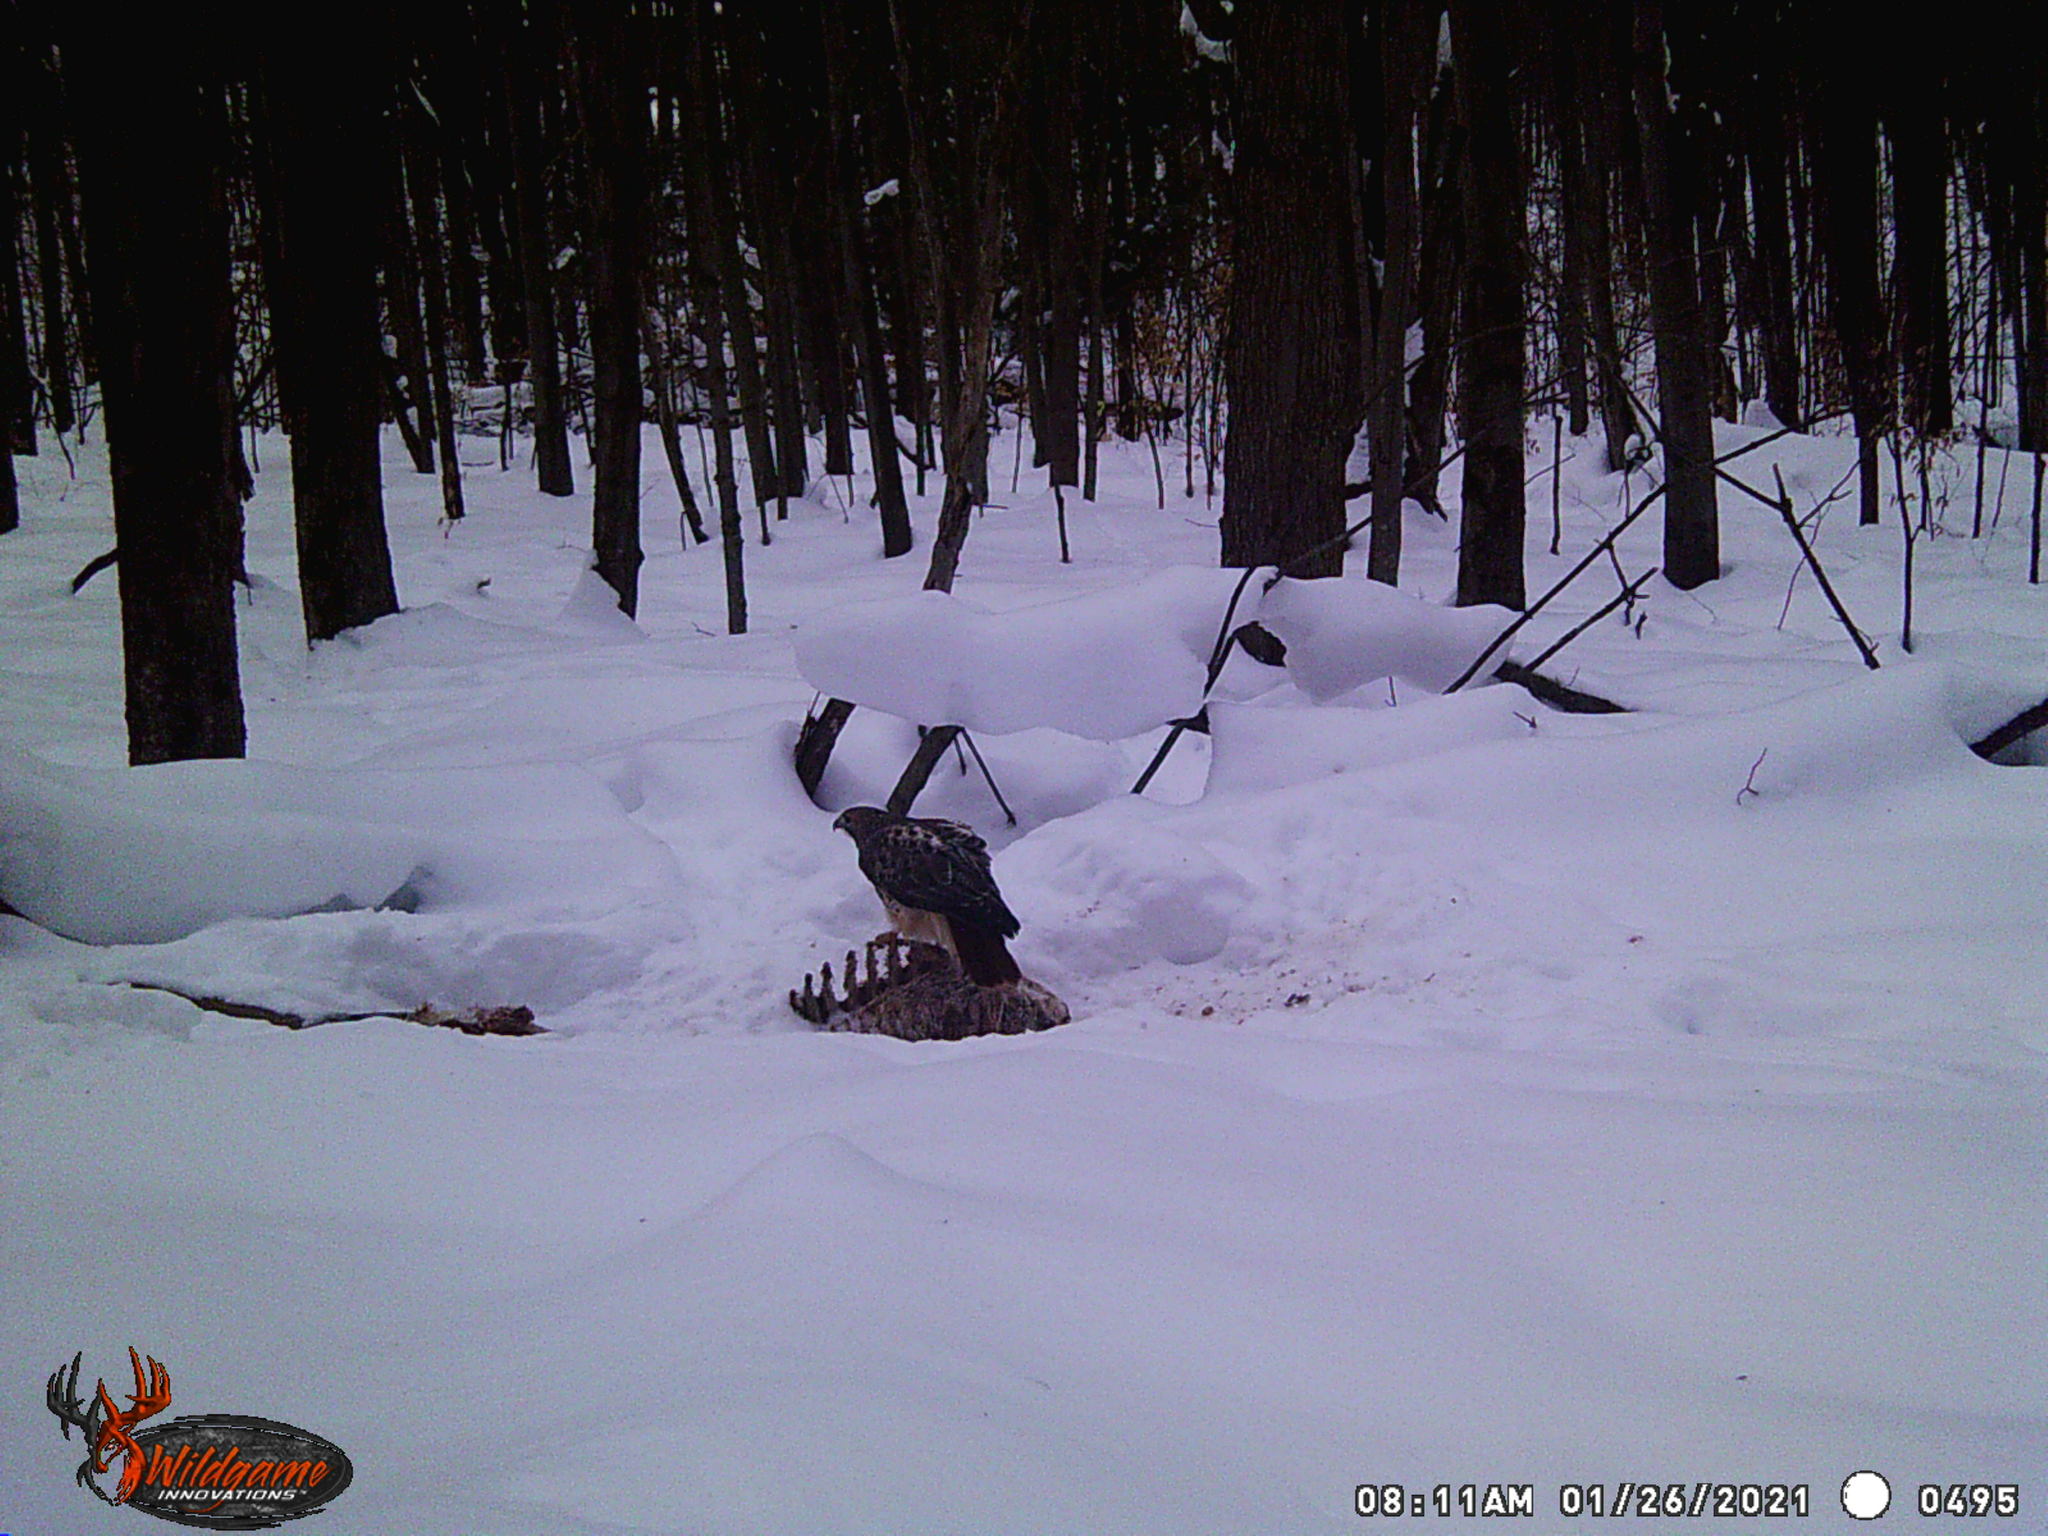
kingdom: Animalia
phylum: Chordata
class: Aves
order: Accipitriformes
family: Accipitridae
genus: Buteo
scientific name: Buteo jamaicensis
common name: Red-tailed hawk
